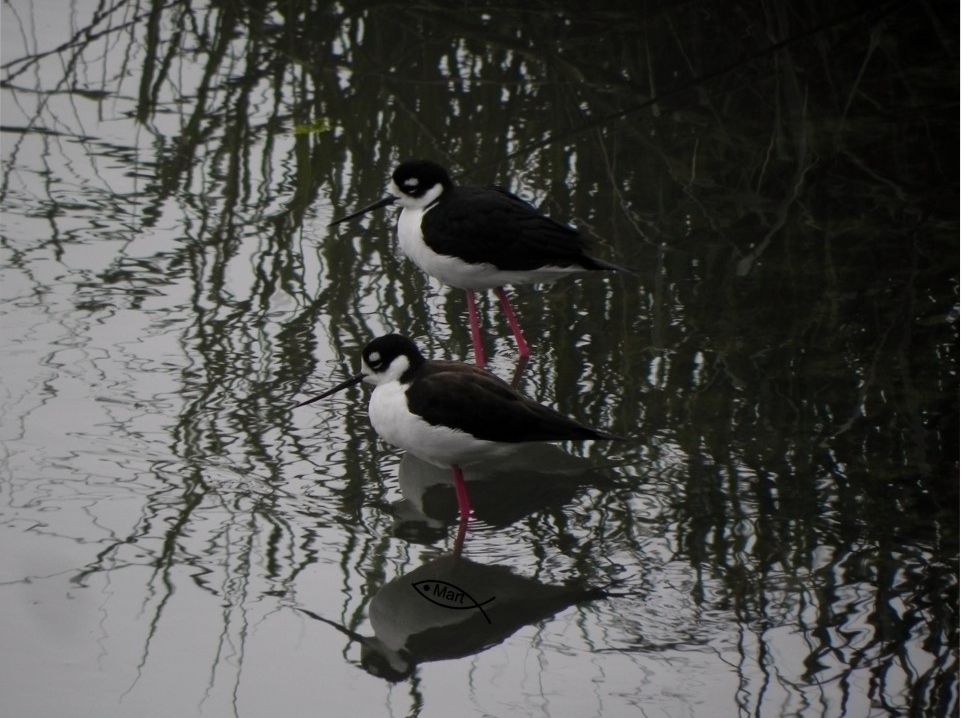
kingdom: Animalia
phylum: Chordata
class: Aves
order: Charadriiformes
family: Recurvirostridae
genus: Himantopus
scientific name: Himantopus mexicanus
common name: Black-necked stilt
